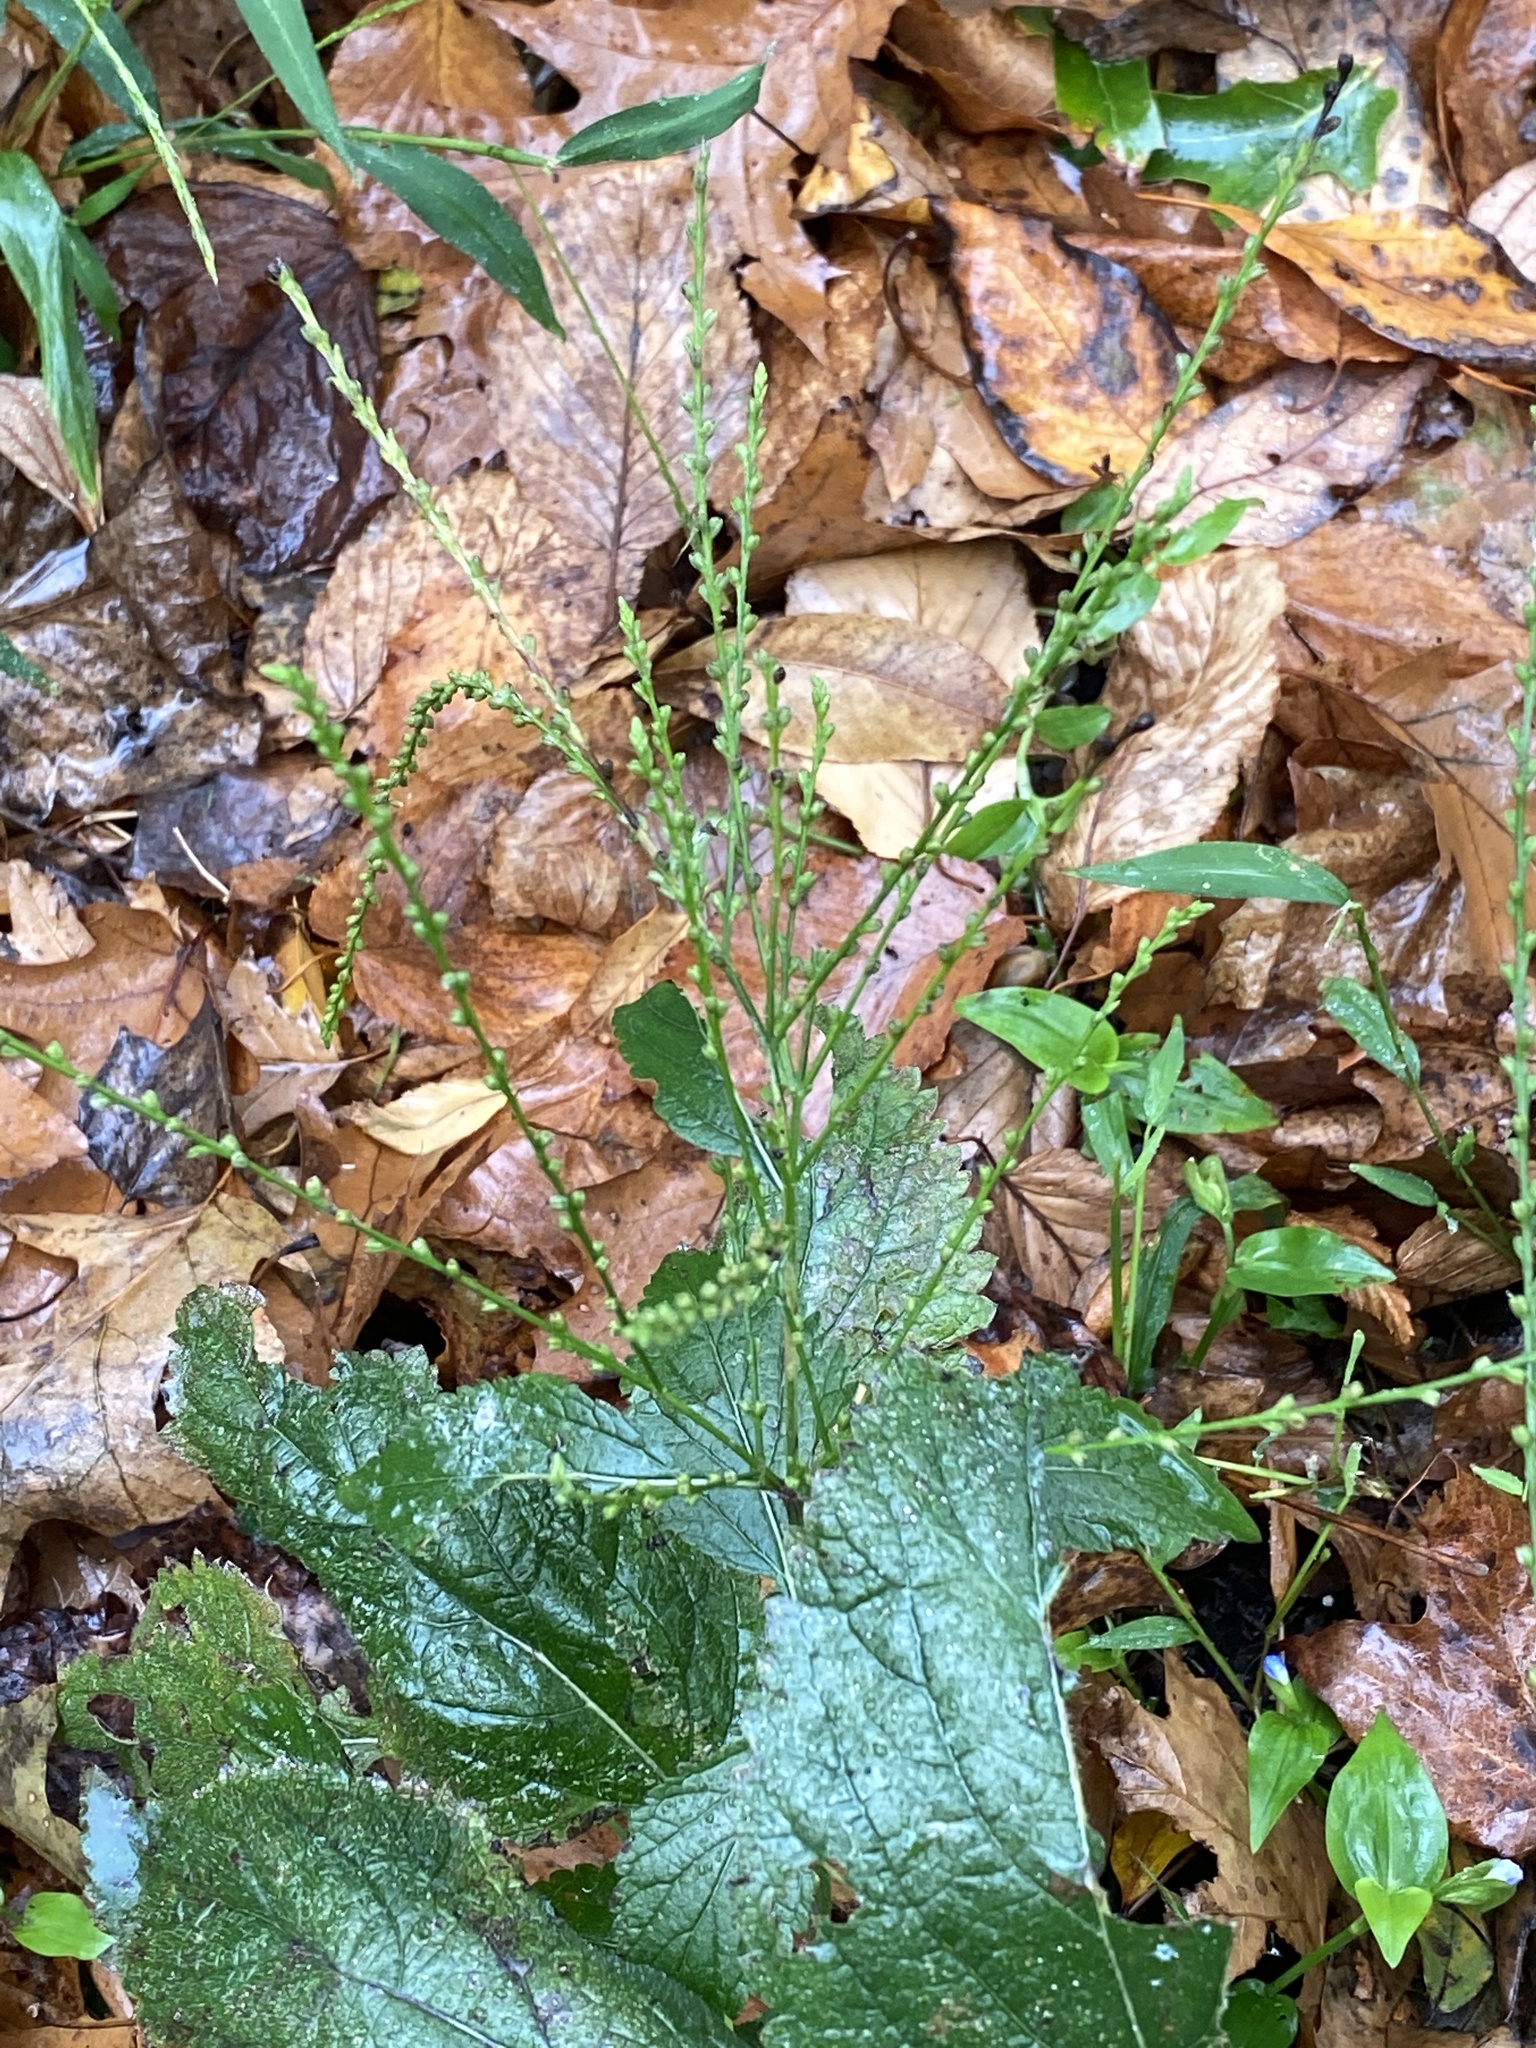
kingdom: Plantae
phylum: Tracheophyta
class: Magnoliopsida
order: Lamiales
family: Verbenaceae
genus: Verbena
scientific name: Verbena urticifolia
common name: Nettle-leaved vervain
